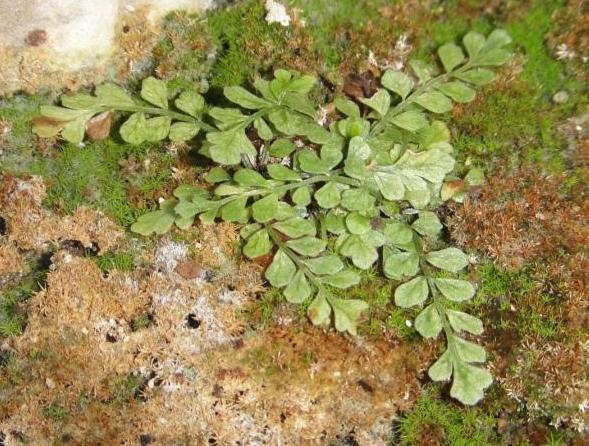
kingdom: Plantae
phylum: Tracheophyta
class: Polypodiopsida
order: Polypodiales
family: Aspleniaceae
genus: Asplenium
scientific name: Asplenium dentatum
